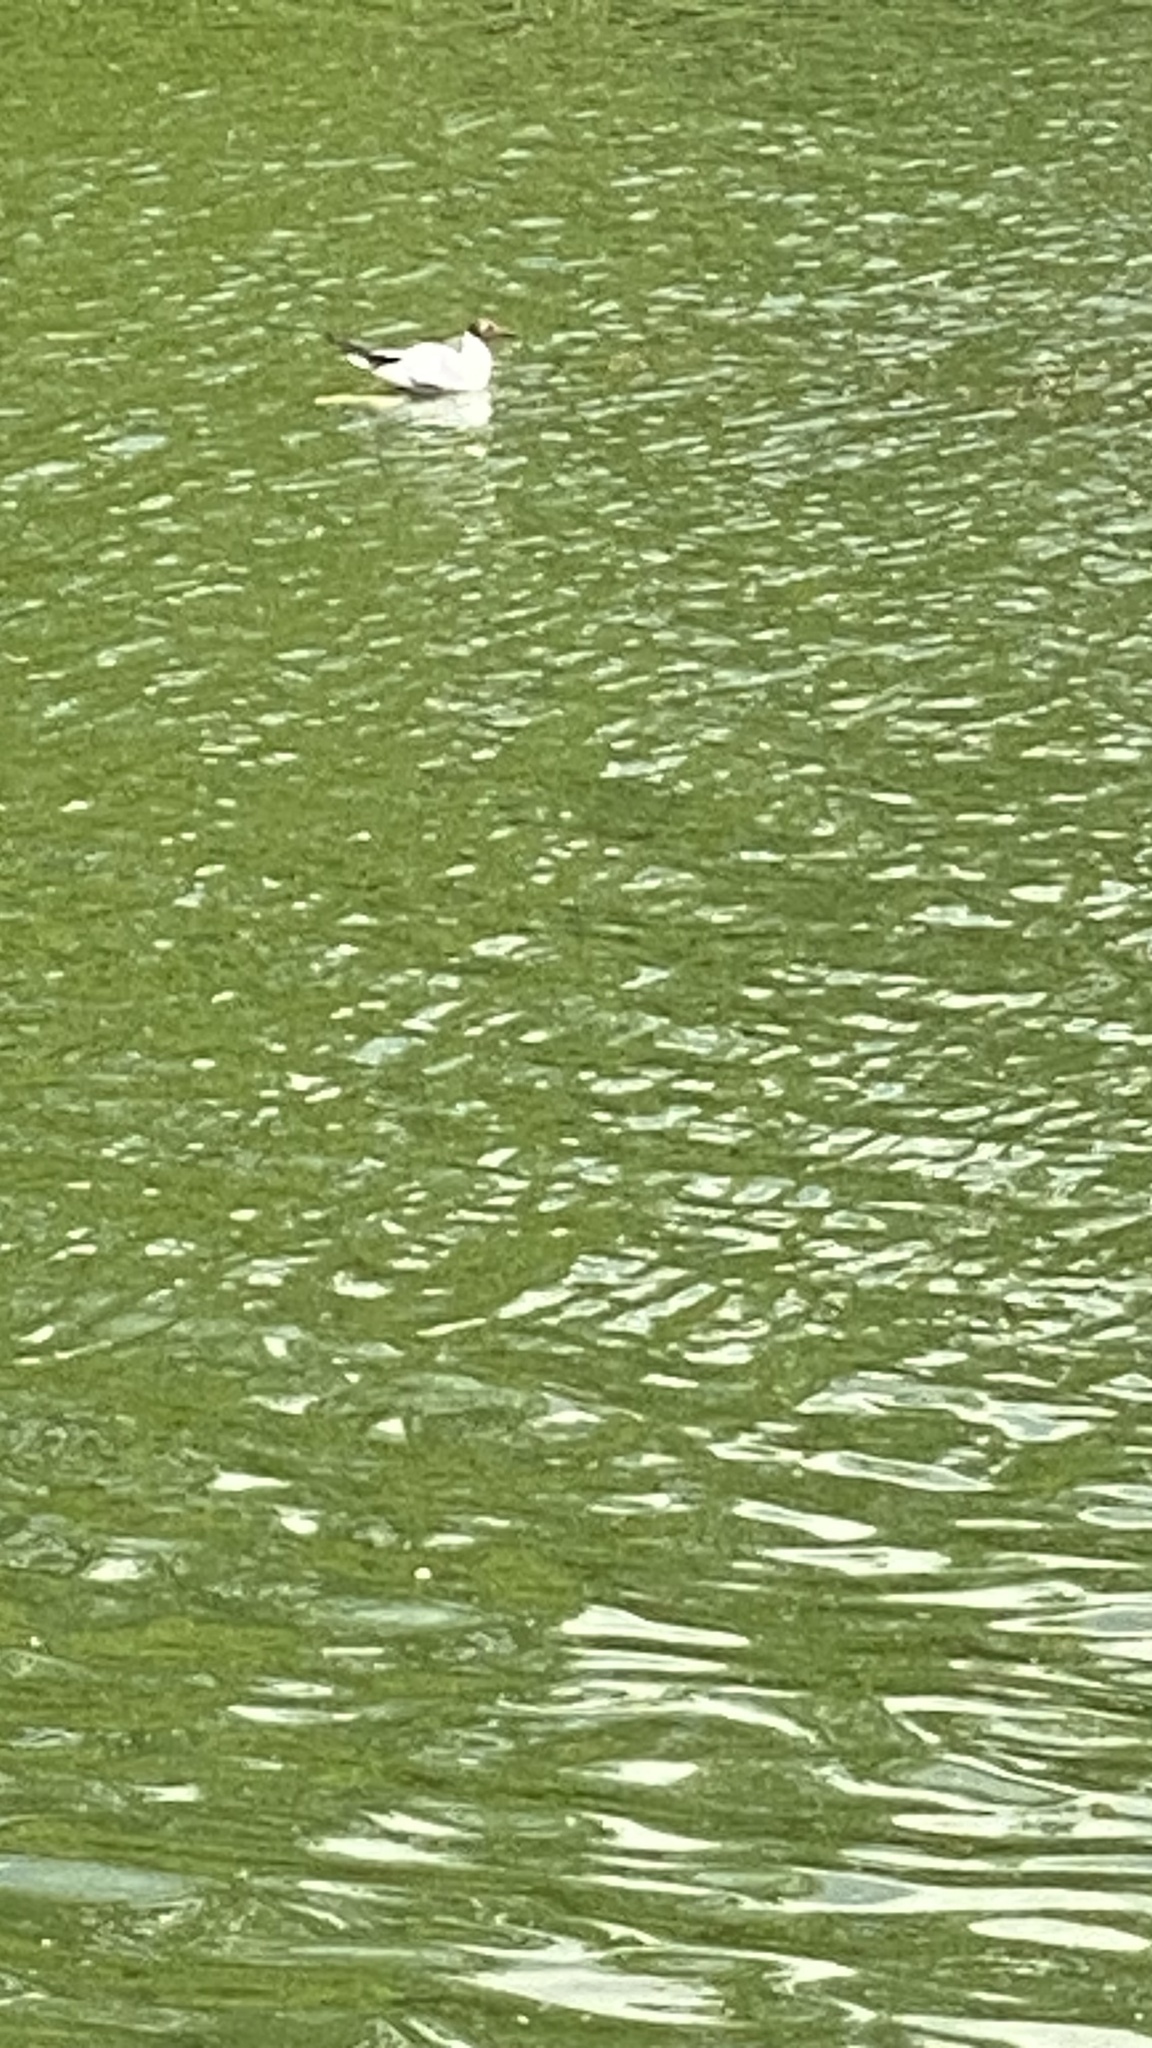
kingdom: Animalia
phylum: Chordata
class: Aves
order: Charadriiformes
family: Laridae
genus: Chroicocephalus
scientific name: Chroicocephalus ridibundus
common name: Black-headed gull
